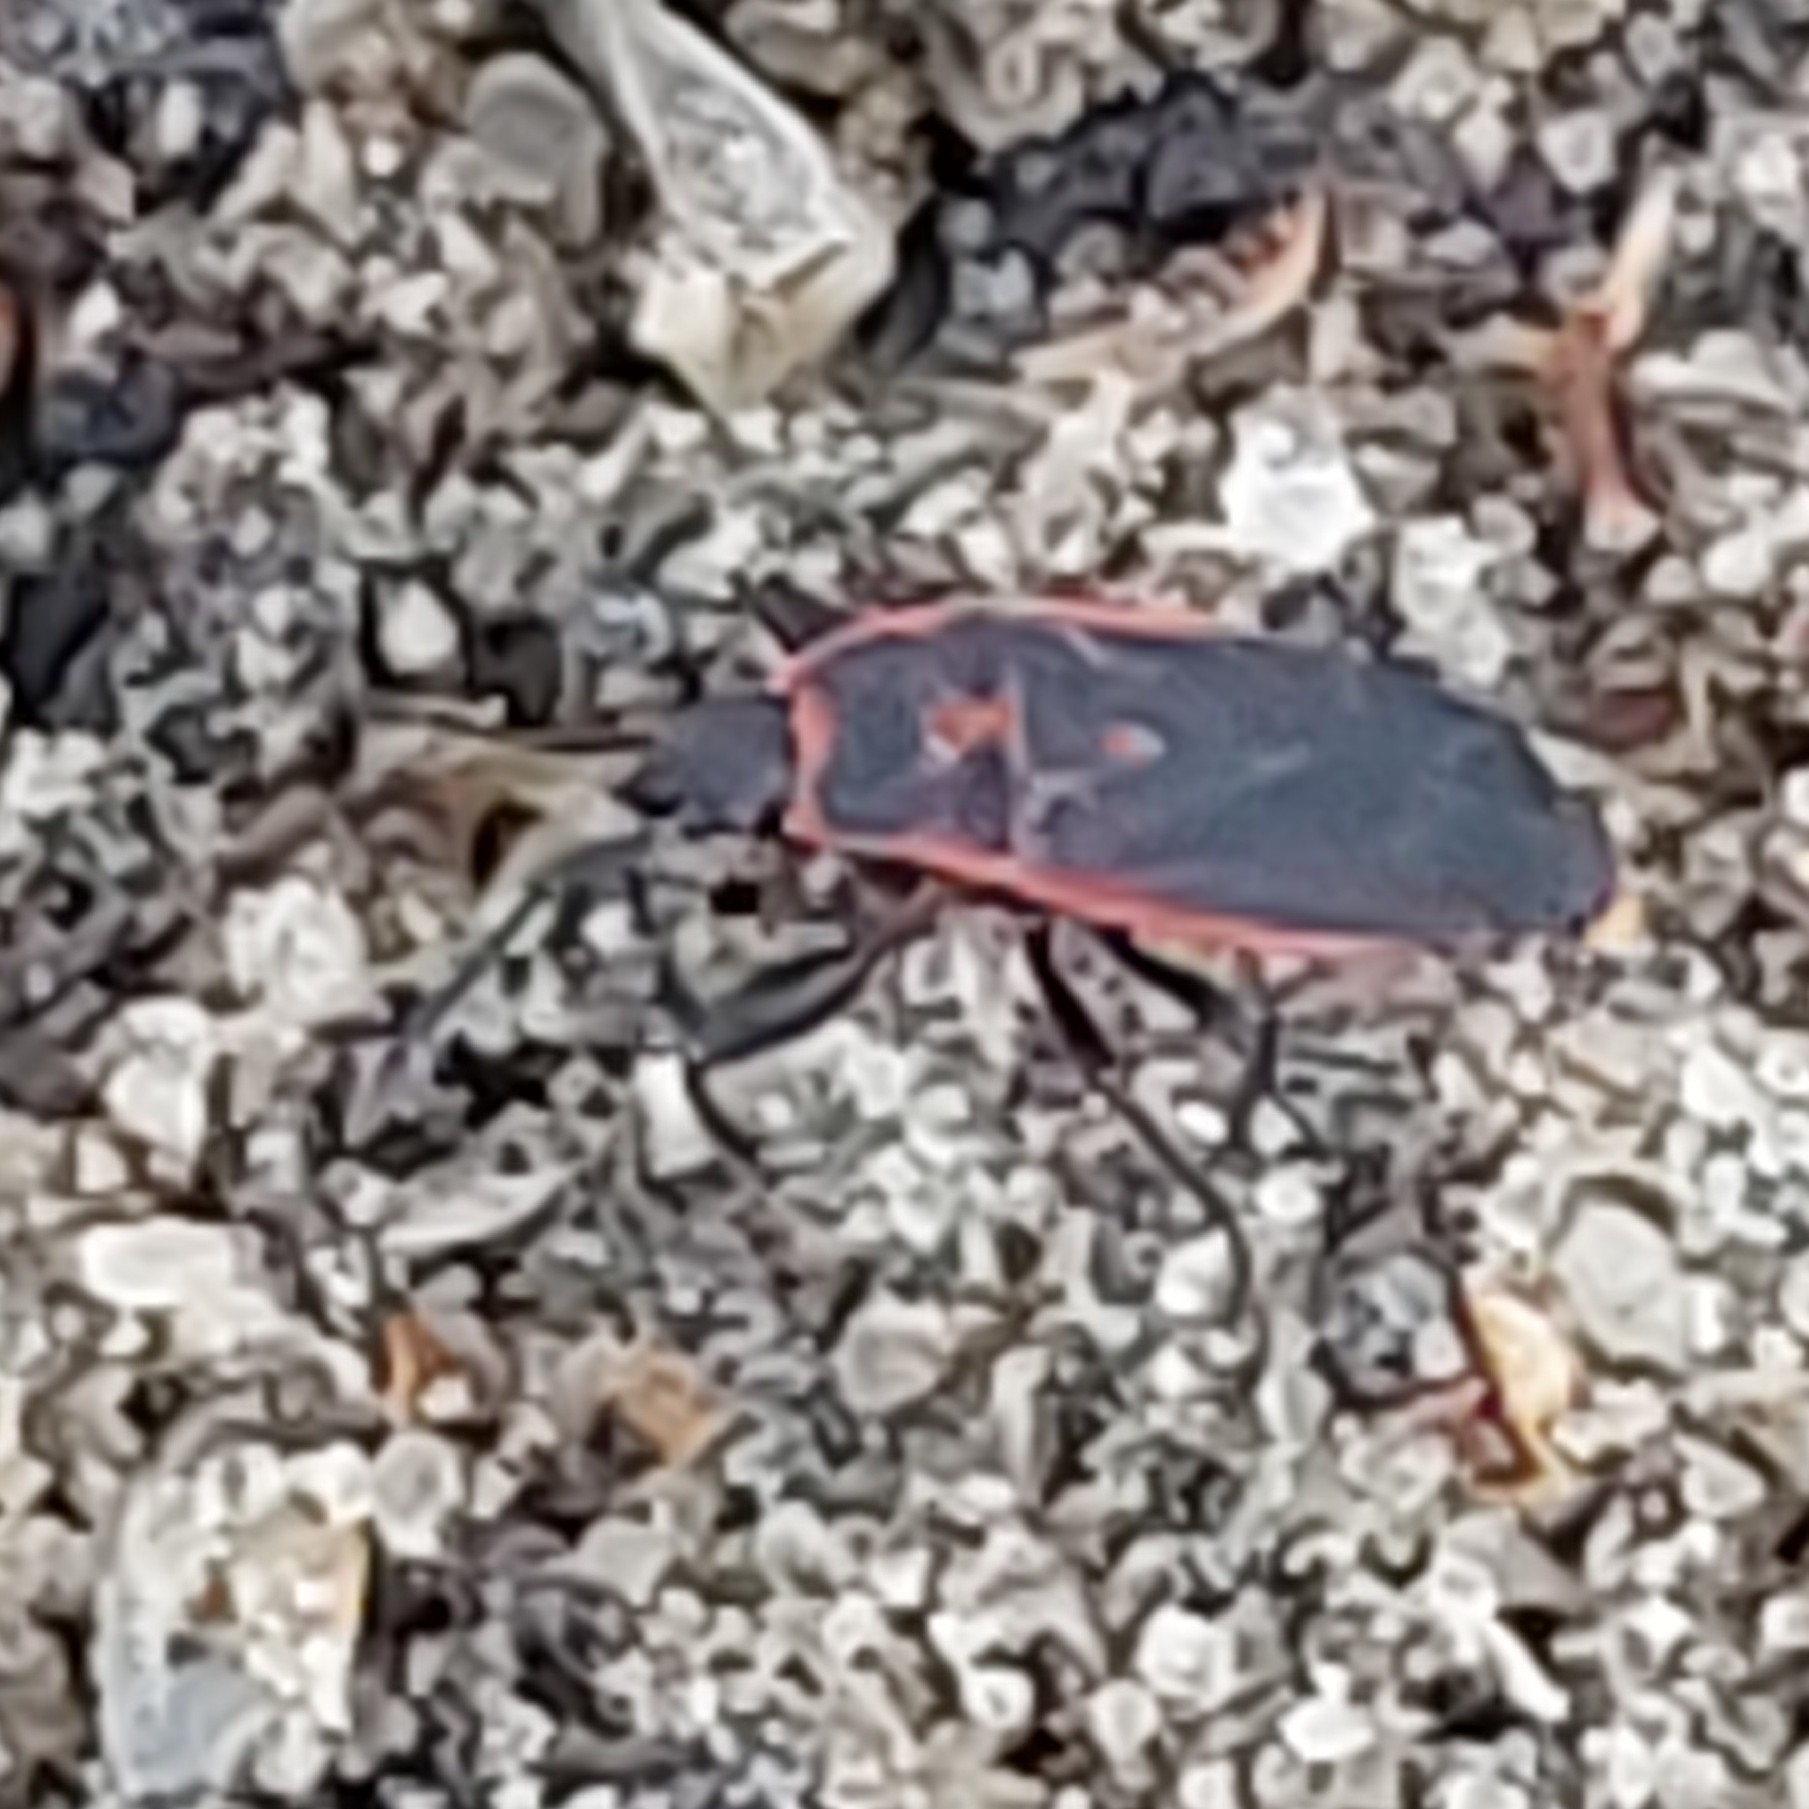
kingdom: Animalia
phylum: Arthropoda
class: Insecta
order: Hemiptera
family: Pyrrhocoridae
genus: Scantius
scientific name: Scantius forsteri
